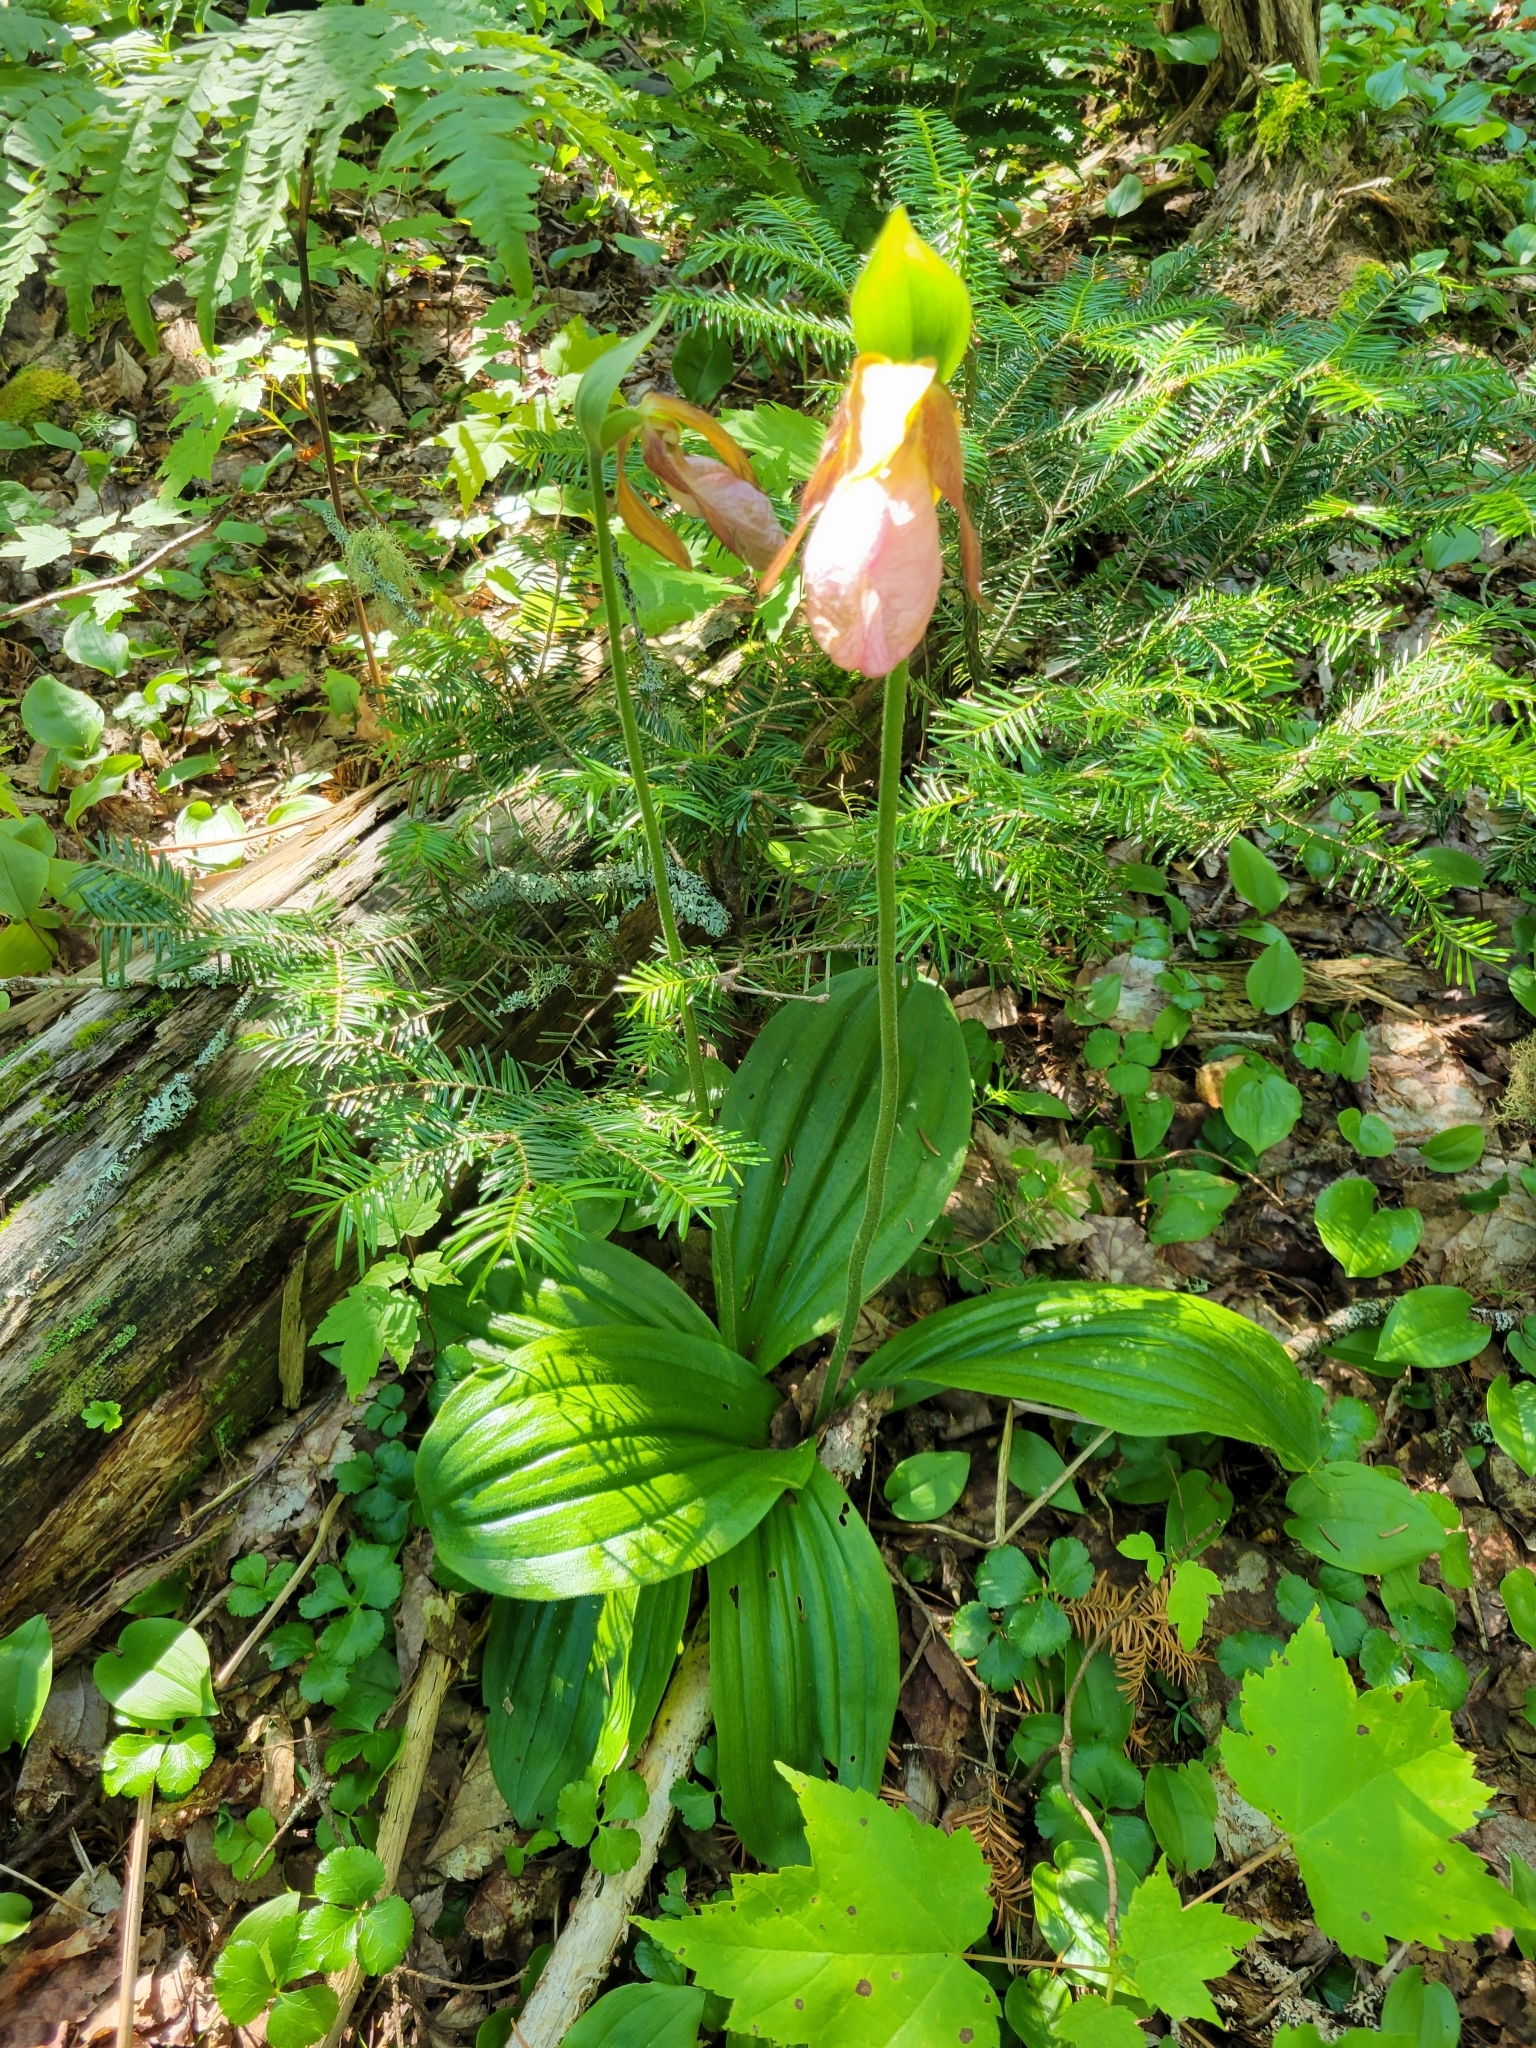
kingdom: Plantae
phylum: Tracheophyta
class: Liliopsida
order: Asparagales
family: Orchidaceae
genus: Cypripedium
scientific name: Cypripedium acaule
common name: Pink lady's-slipper
